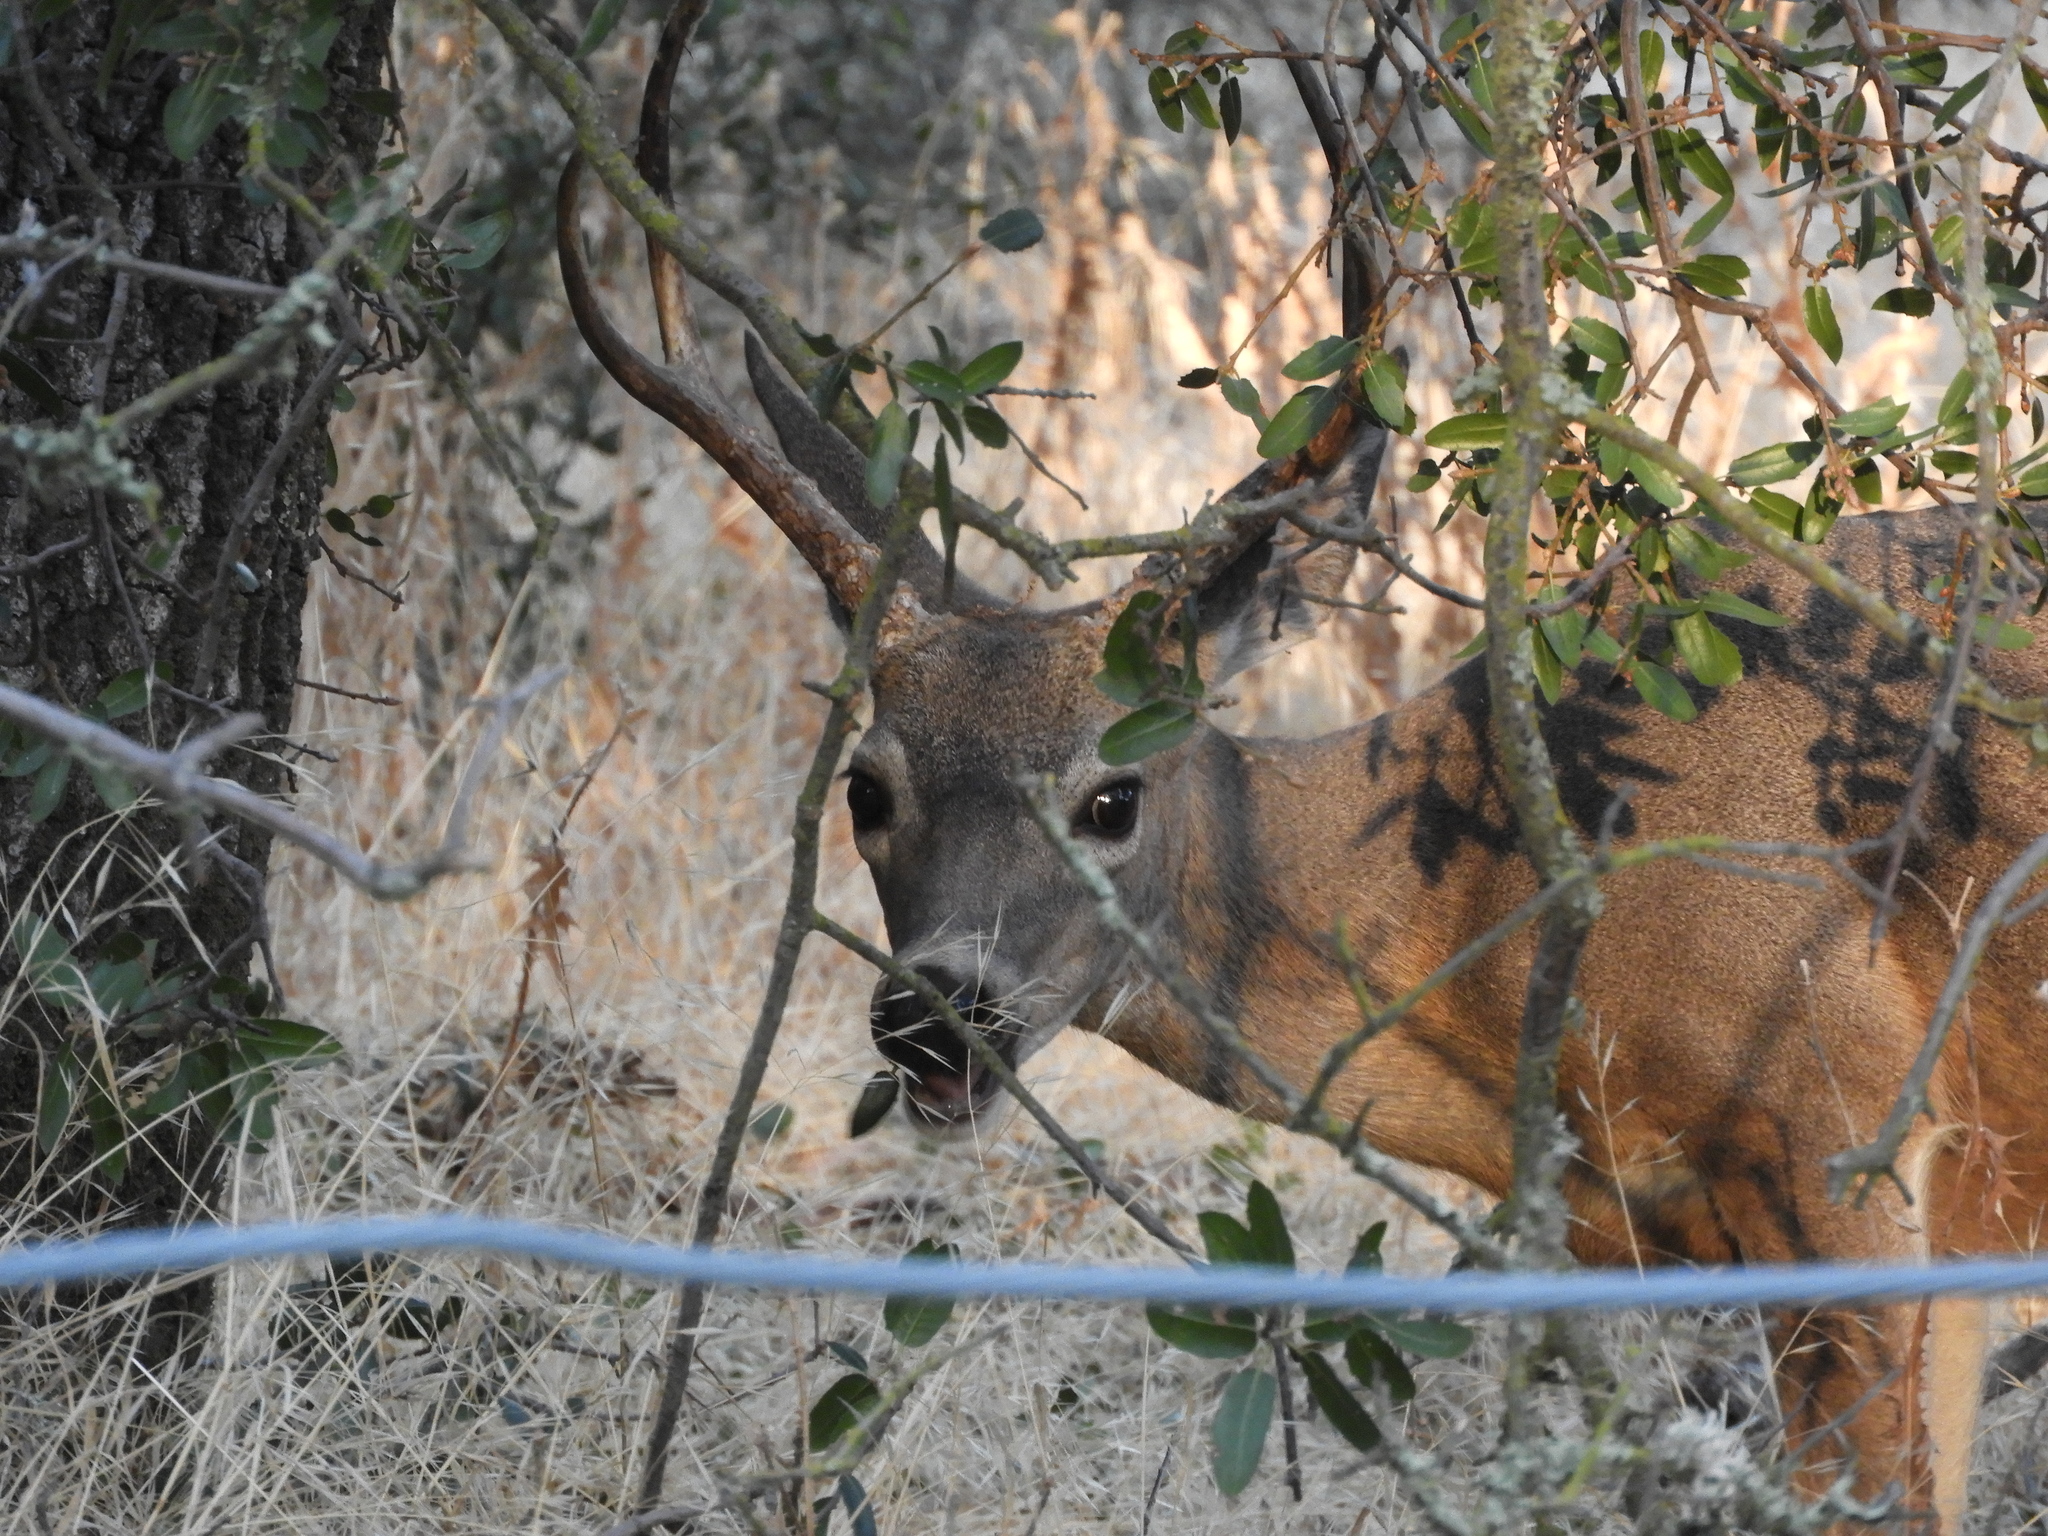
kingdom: Animalia
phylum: Chordata
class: Mammalia
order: Artiodactyla
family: Cervidae
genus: Odocoileus
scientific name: Odocoileus hemionus
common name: Mule deer
